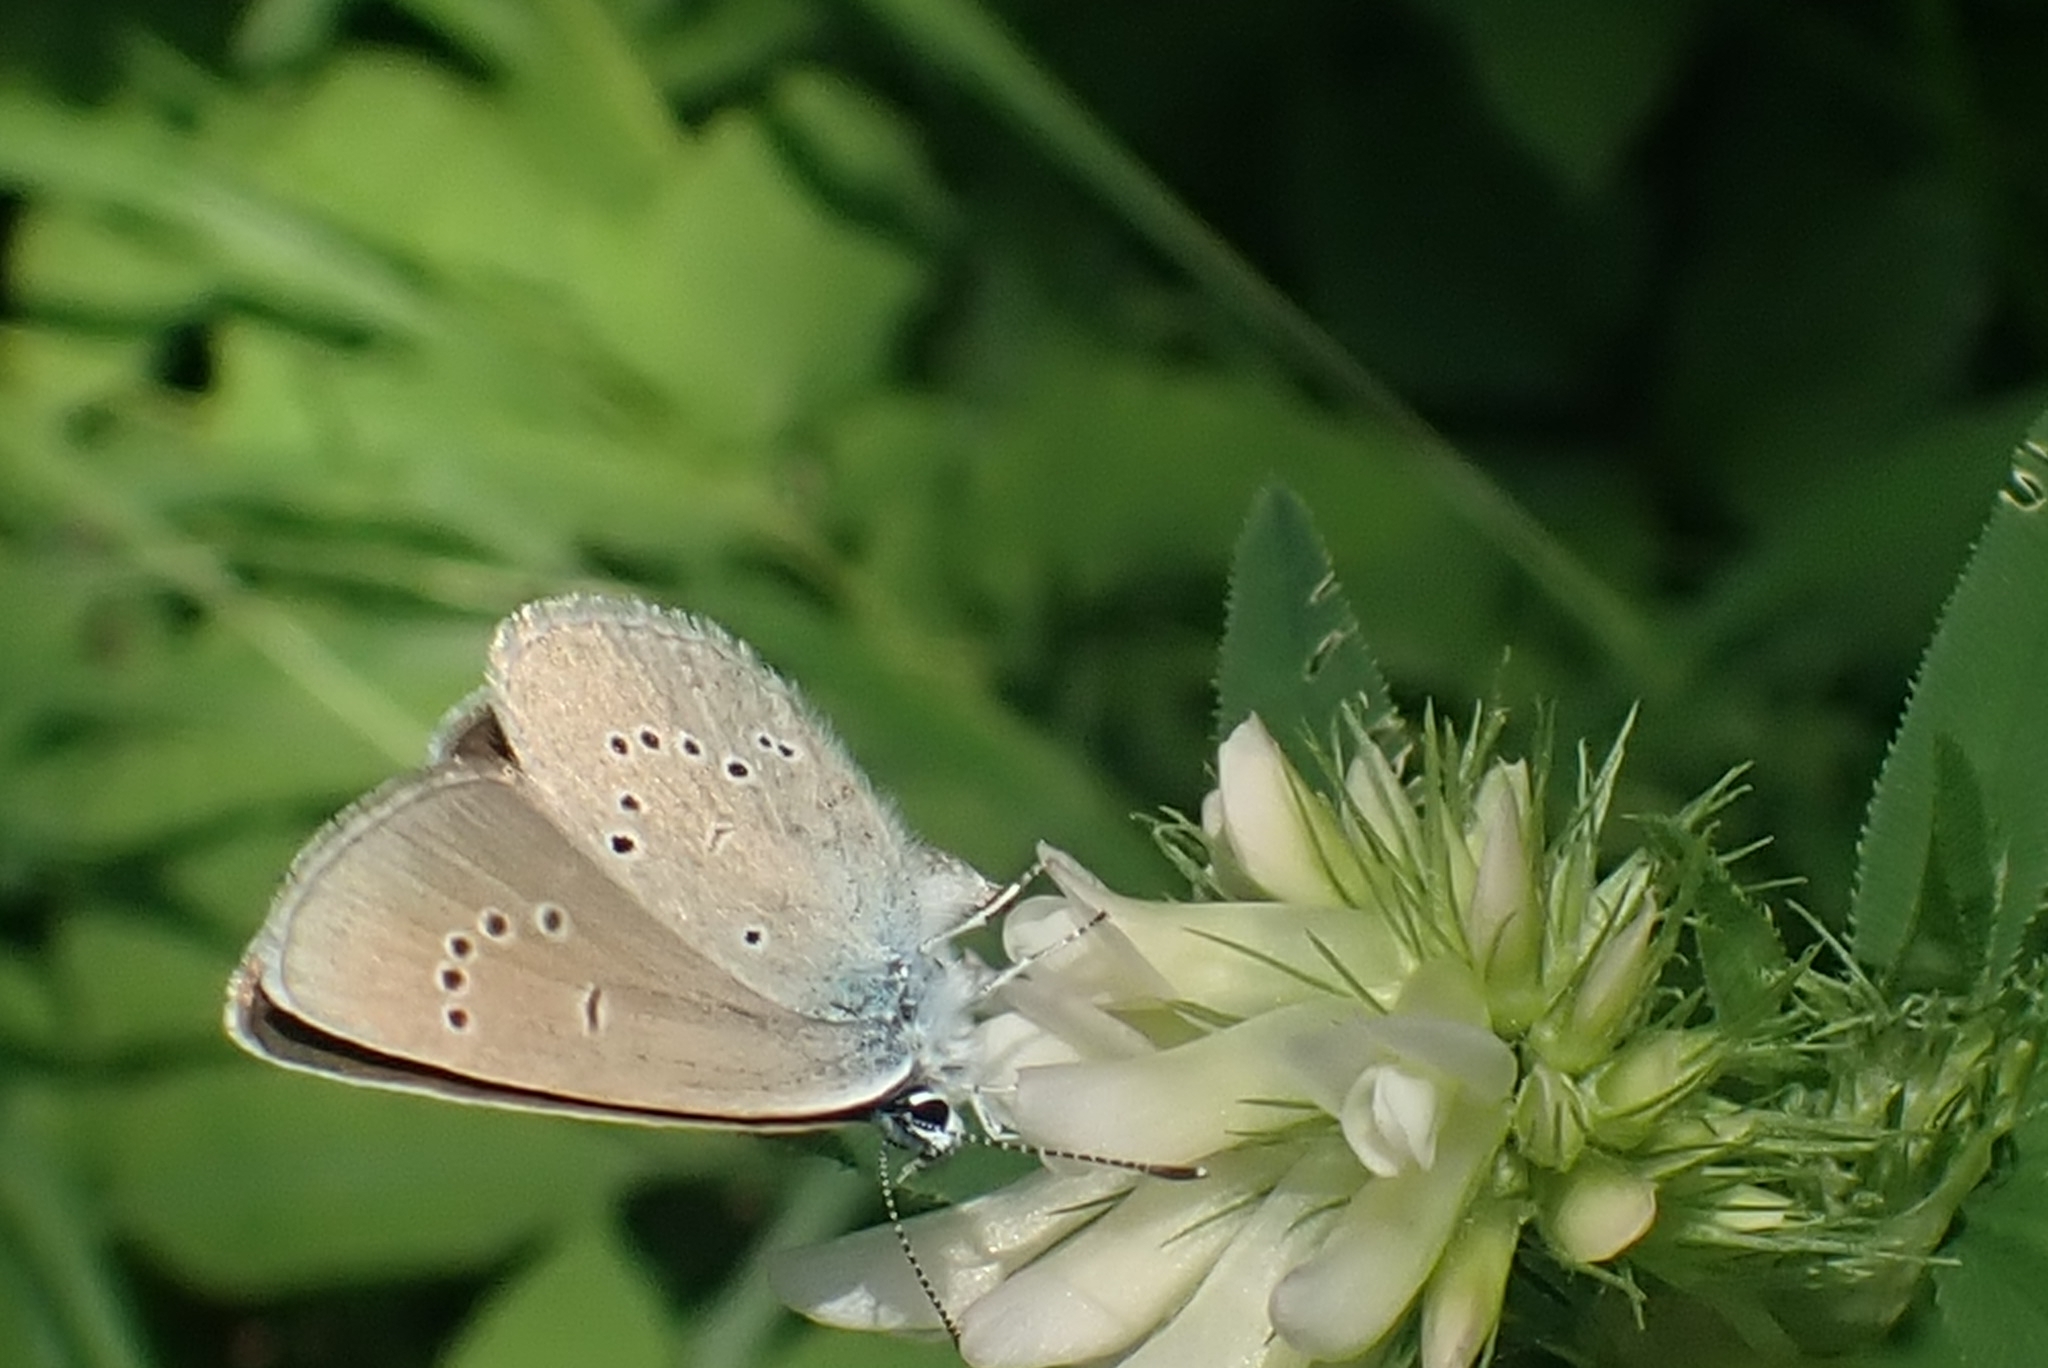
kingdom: Animalia
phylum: Arthropoda
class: Insecta
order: Lepidoptera
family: Lycaenidae
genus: Cyaniris
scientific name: Cyaniris semiargus
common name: Mazarine blue
